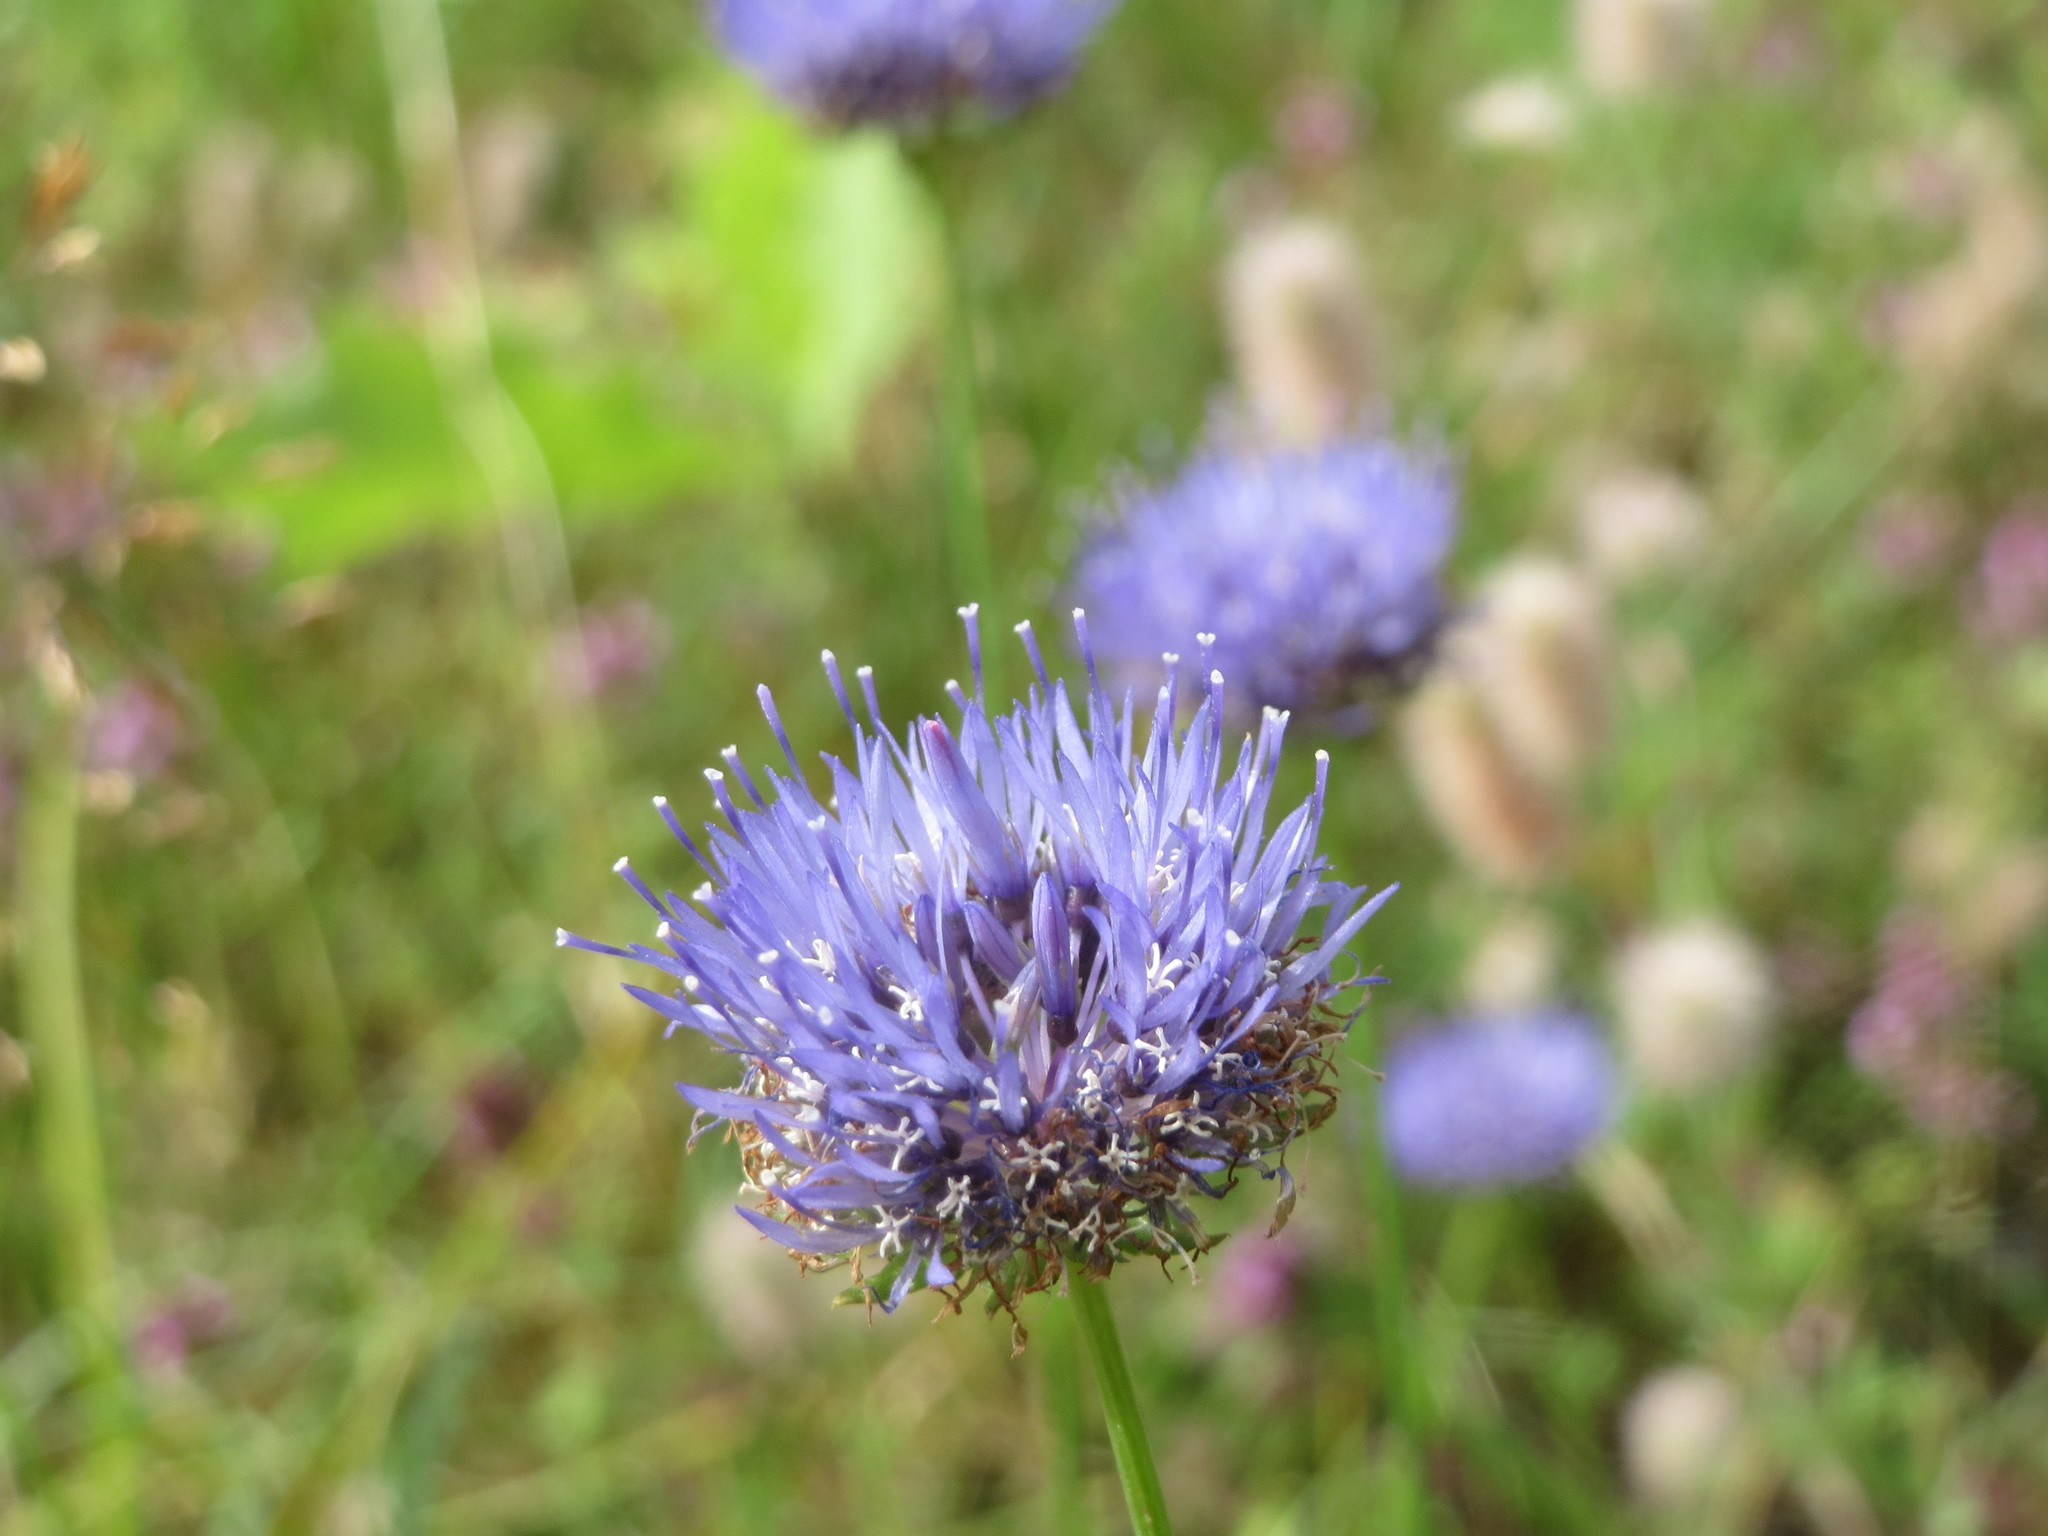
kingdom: Plantae
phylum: Tracheophyta
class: Magnoliopsida
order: Asterales
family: Campanulaceae
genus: Jasione
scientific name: Jasione montana
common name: Sheep's-bit
